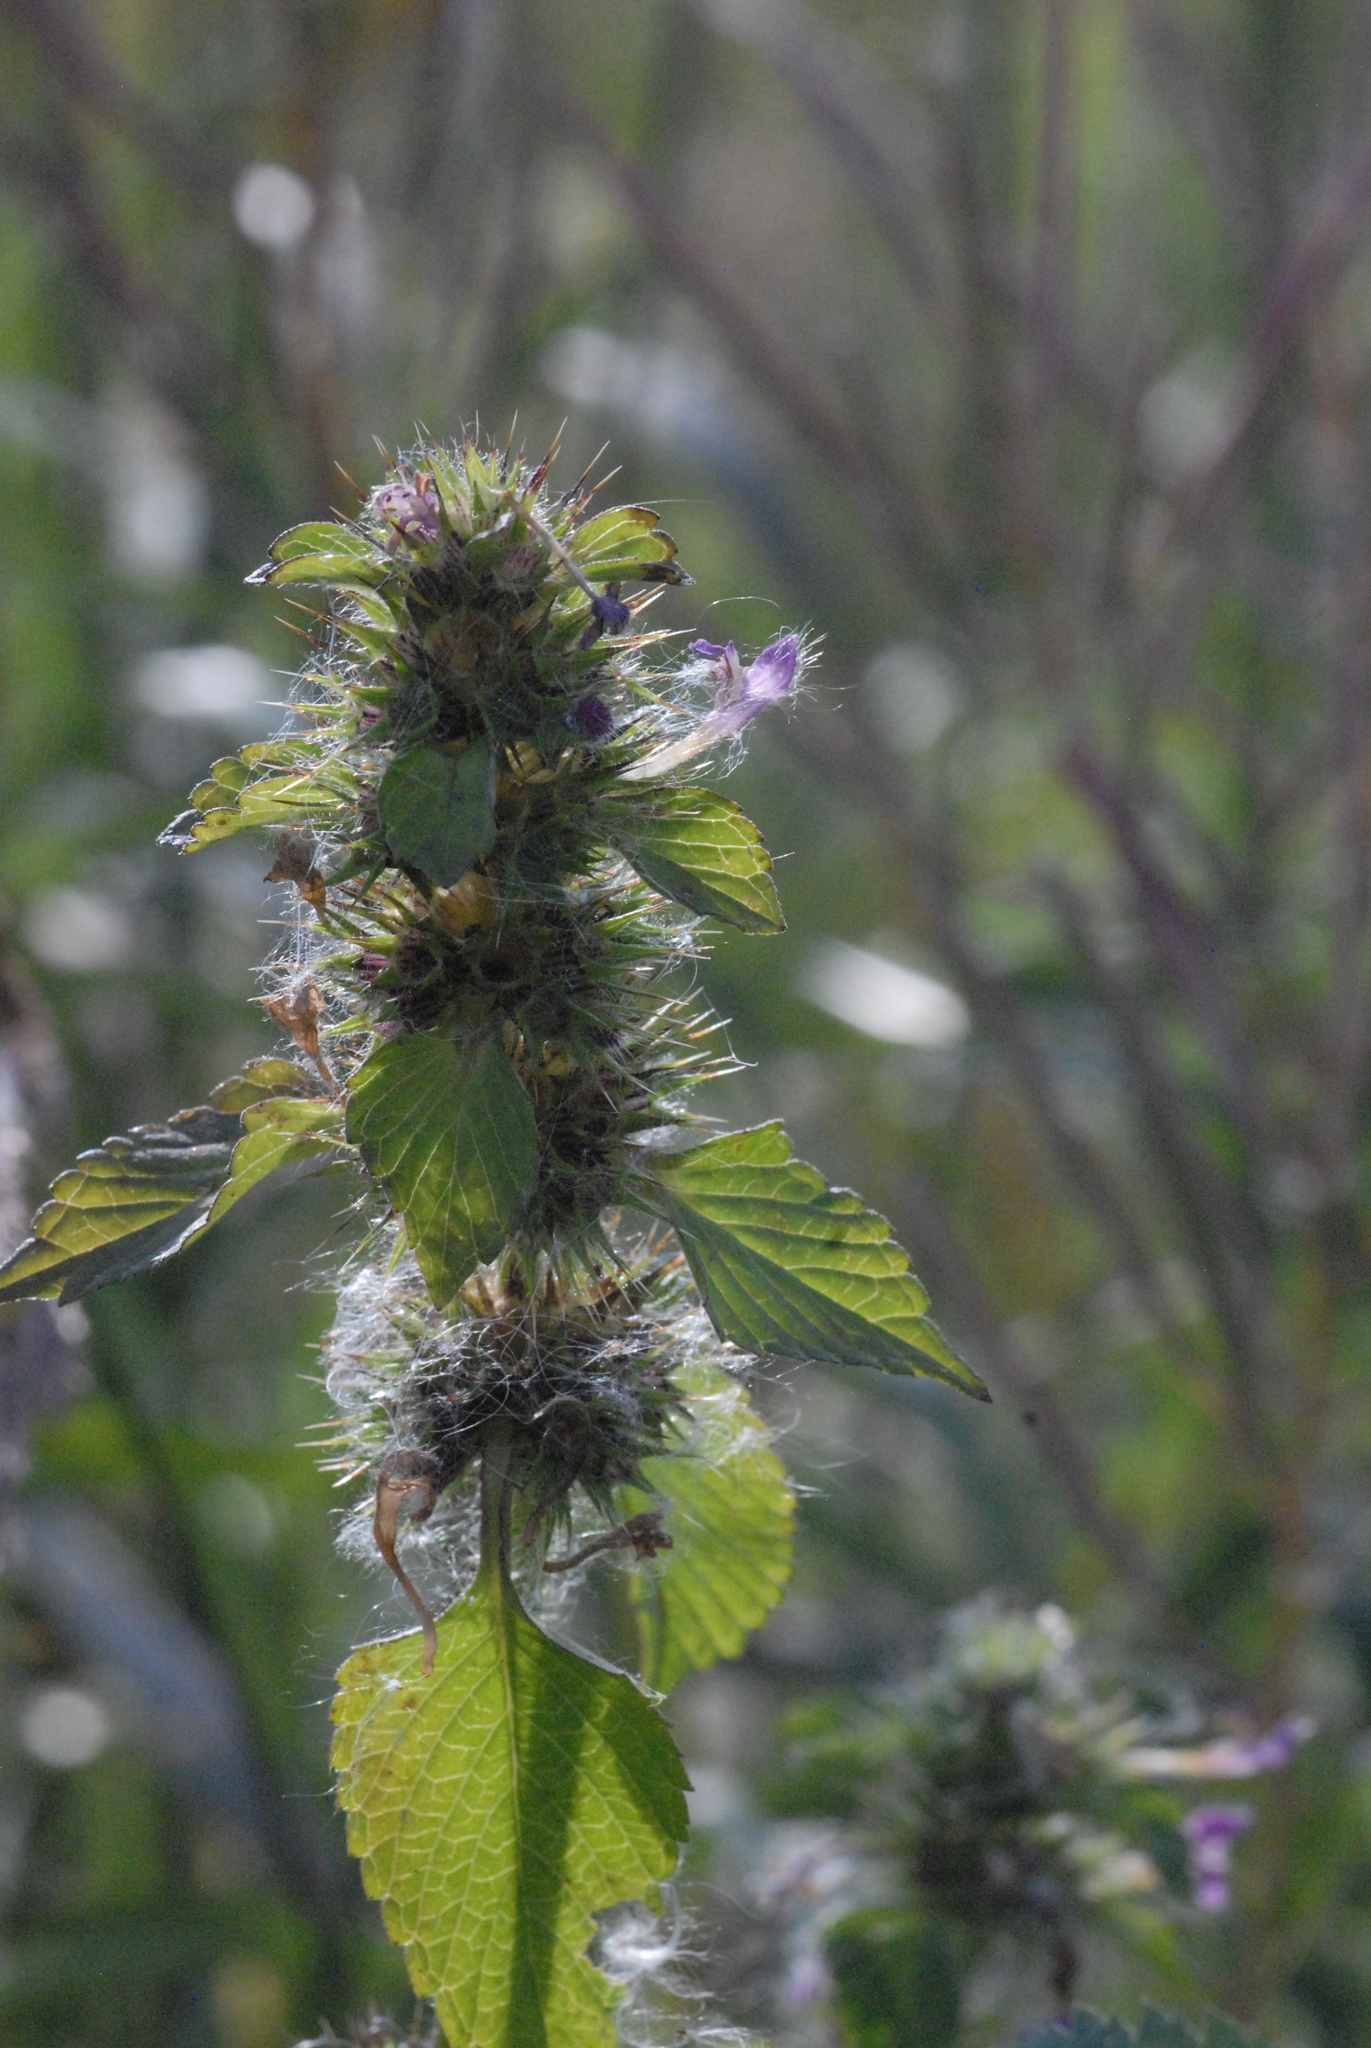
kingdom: Plantae
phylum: Tracheophyta
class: Magnoliopsida
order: Lamiales
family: Lamiaceae
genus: Galeopsis
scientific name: Galeopsis bifida
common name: Bifid hemp-nettle
